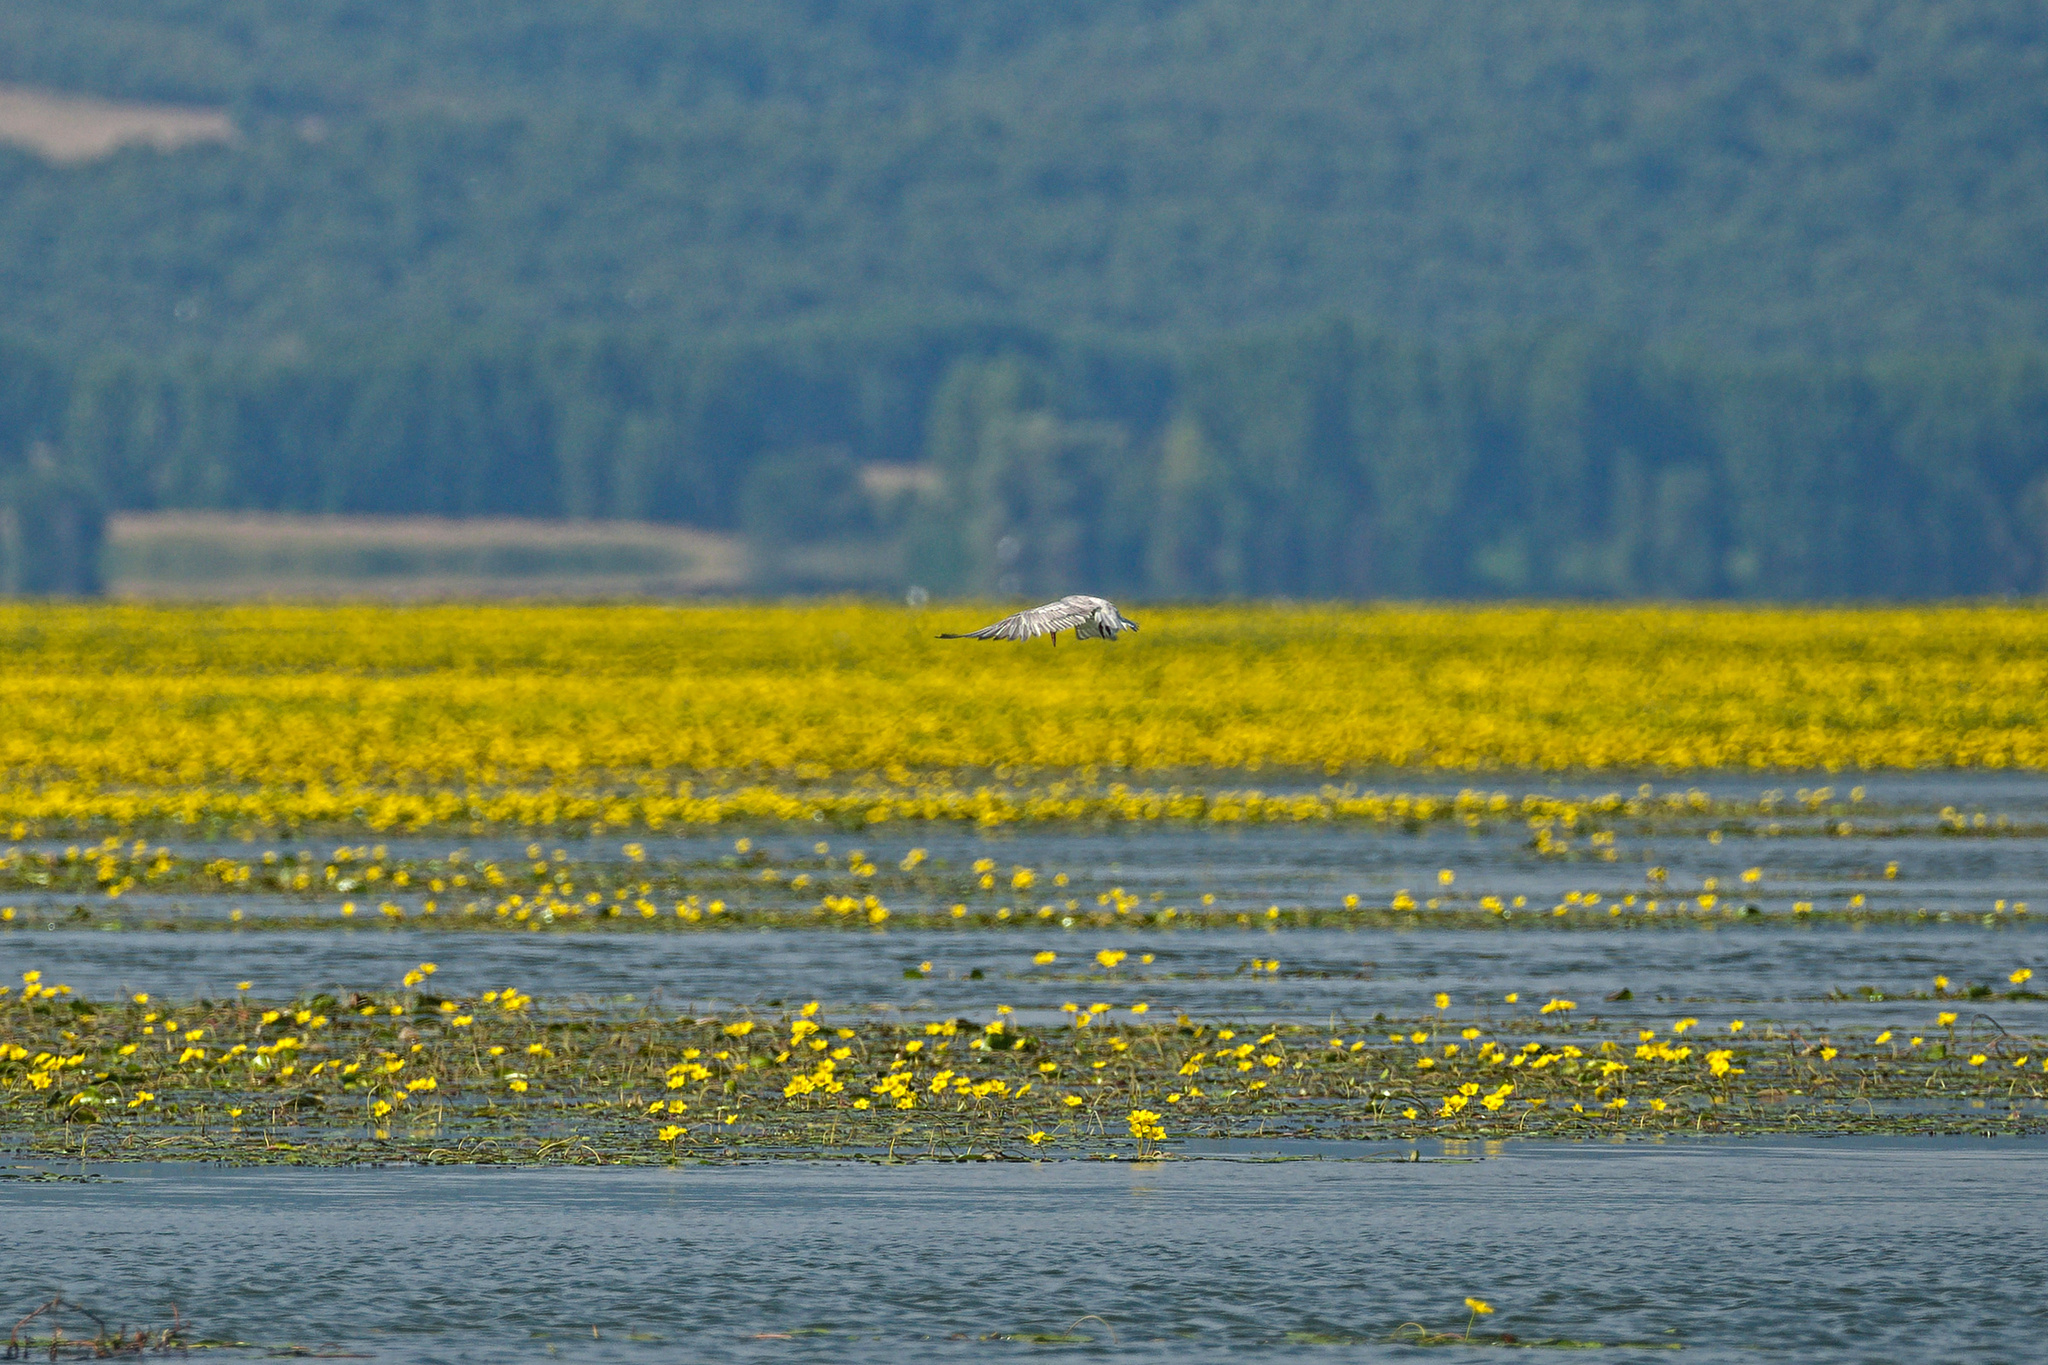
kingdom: Animalia
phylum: Chordata
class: Aves
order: Charadriiformes
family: Laridae
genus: Chlidonias
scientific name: Chlidonias hybrida
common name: Whiskered tern
